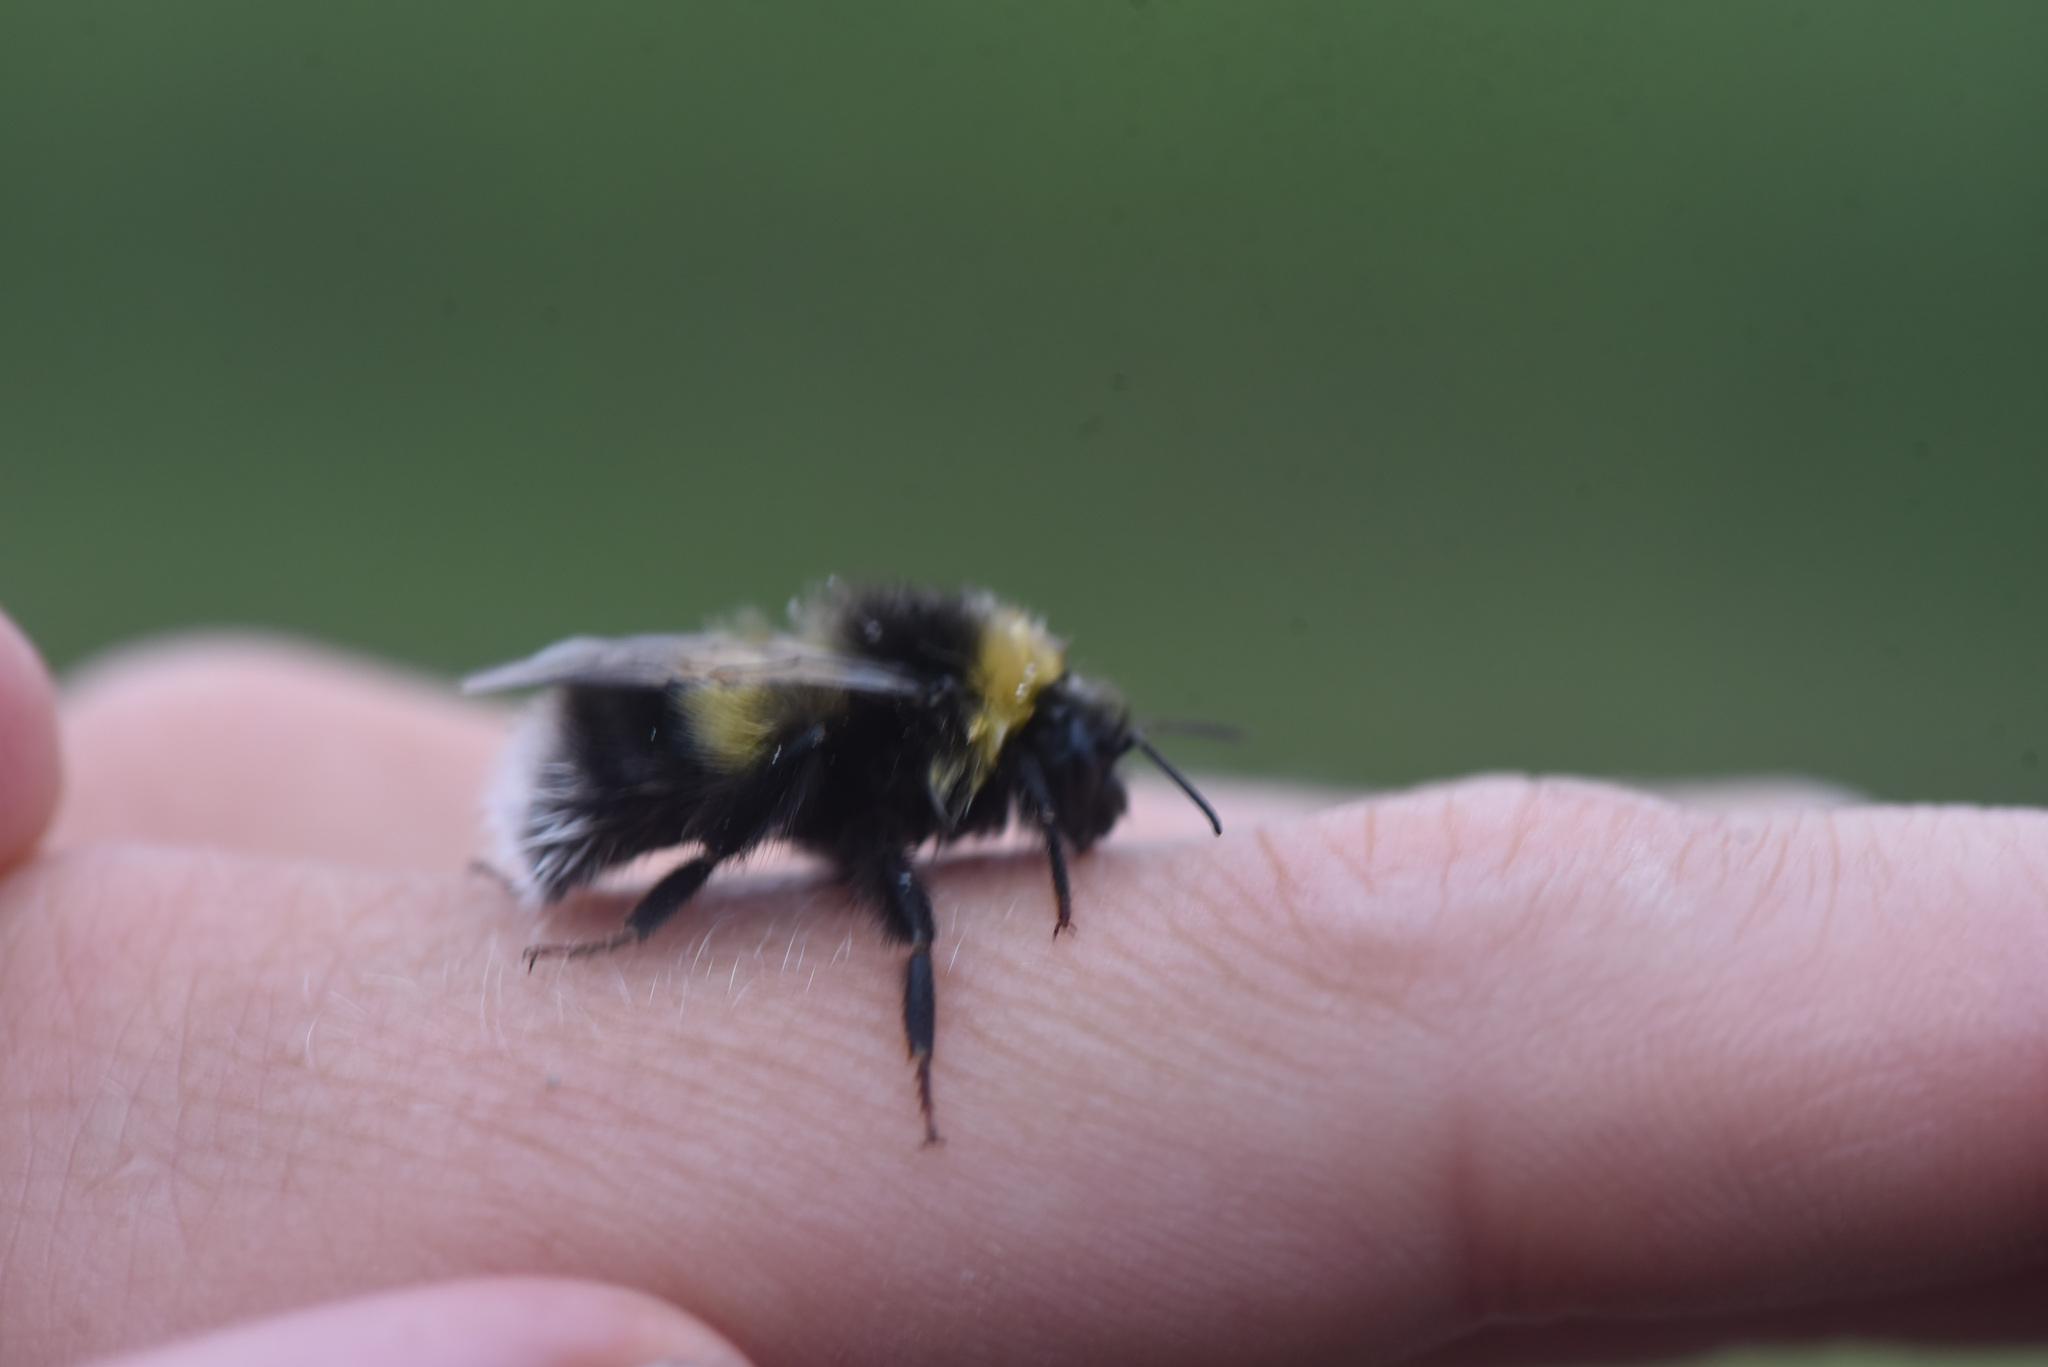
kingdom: Animalia
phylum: Arthropoda
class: Insecta
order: Hymenoptera
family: Apidae
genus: Bombus
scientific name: Bombus cryptarum
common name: Cryptic bumblebee
